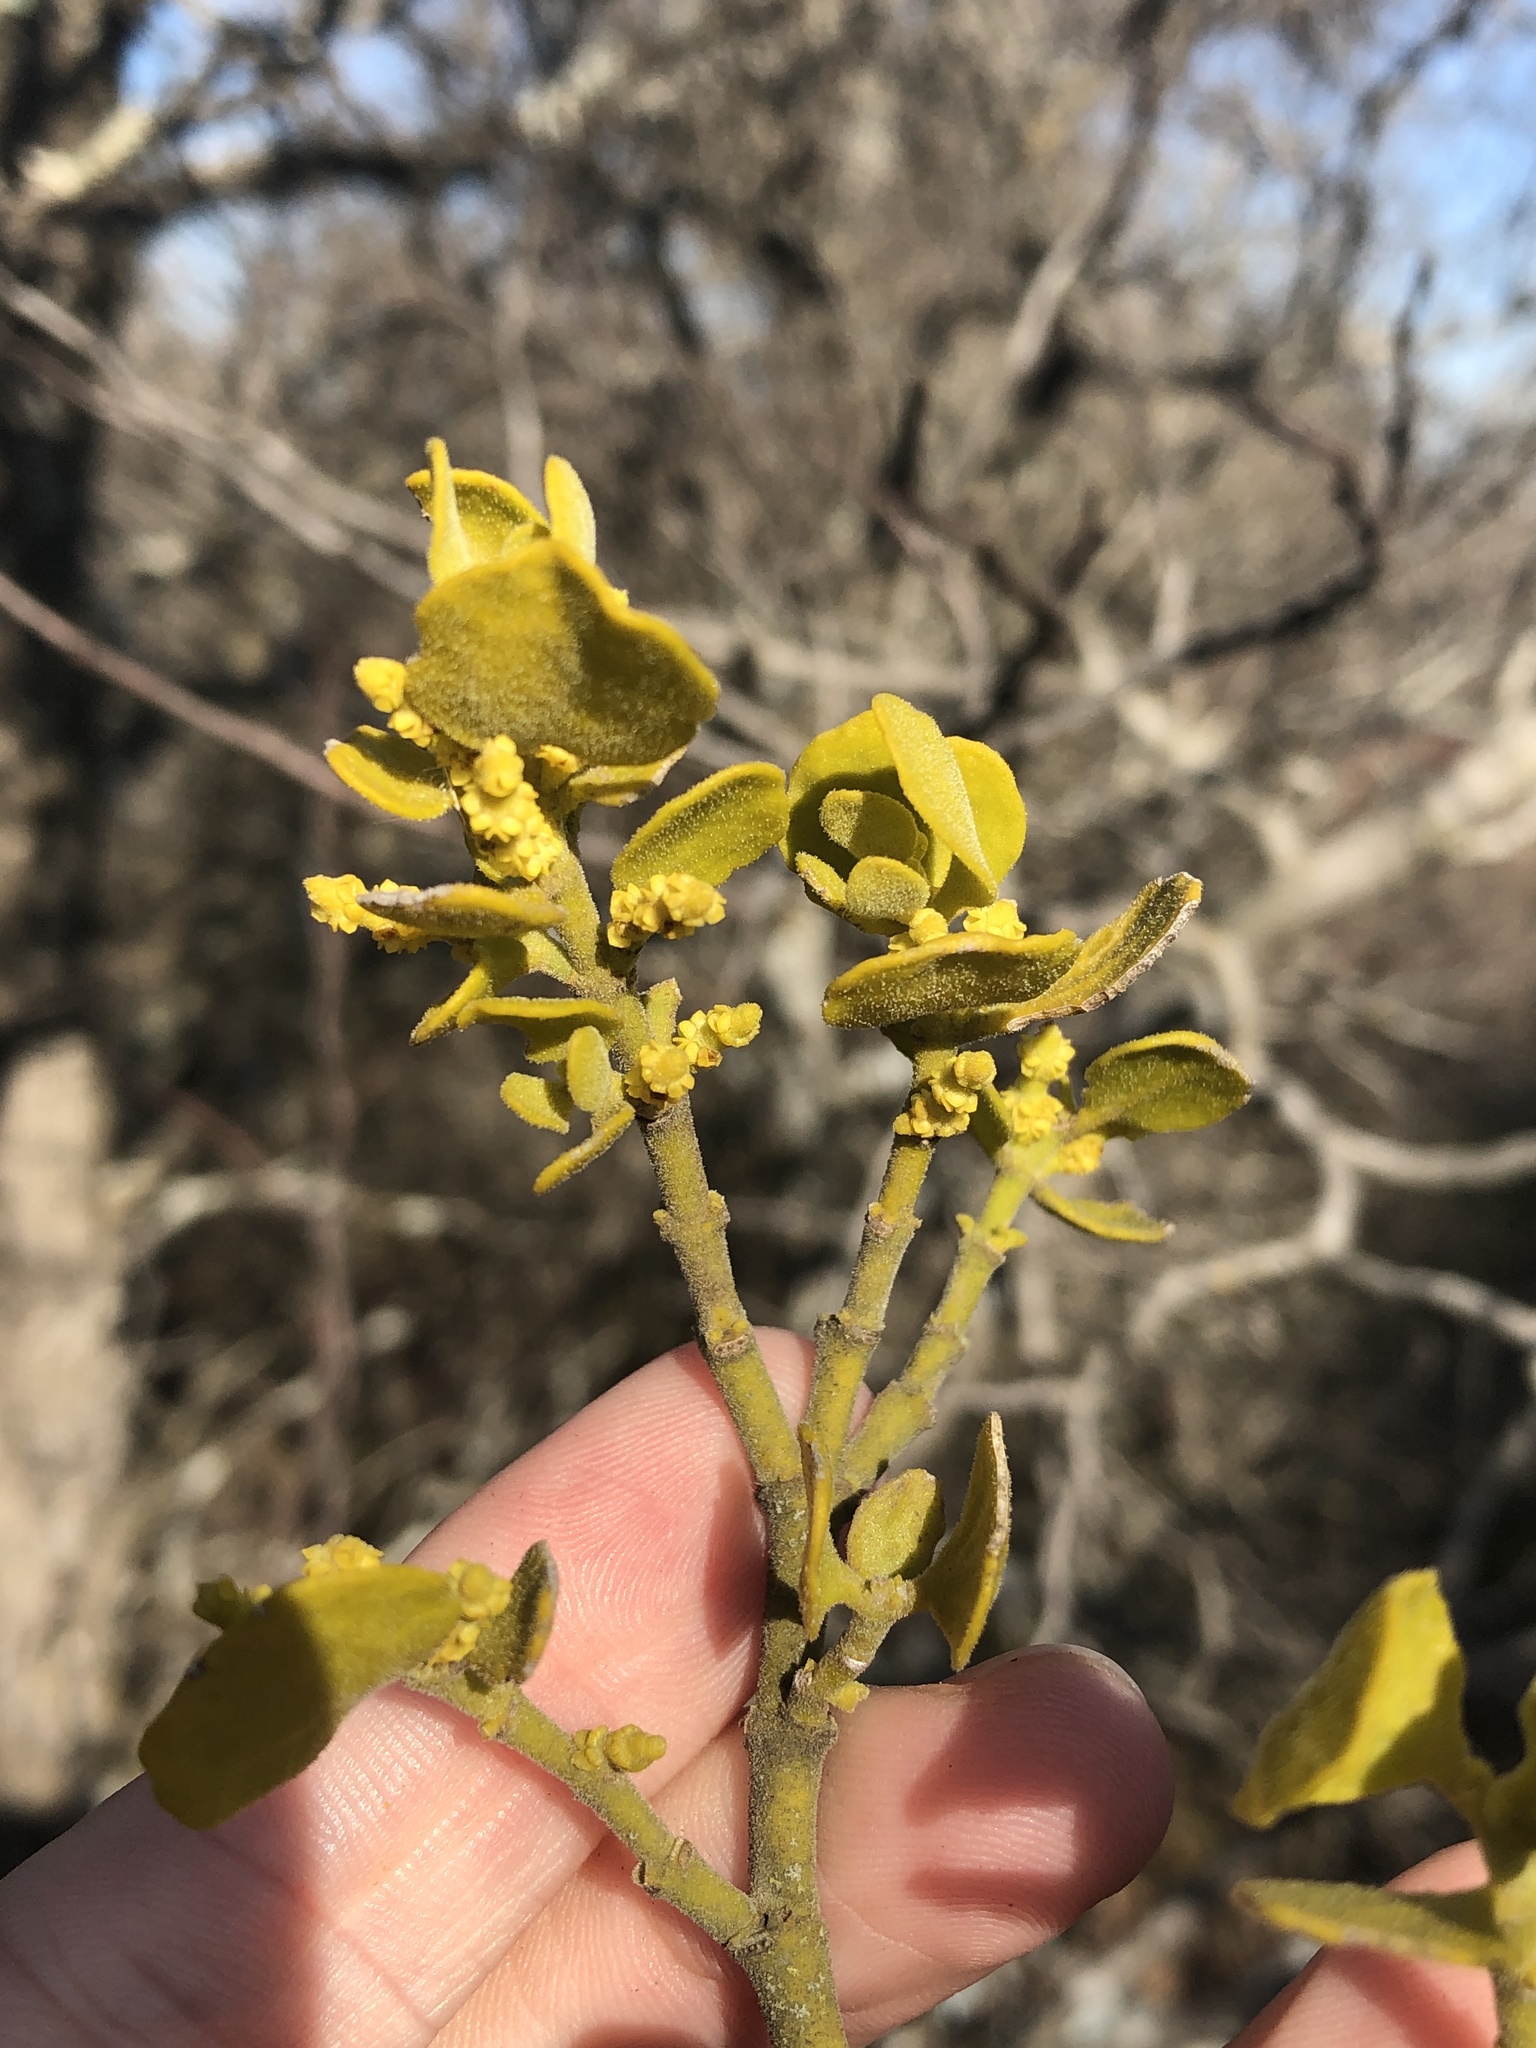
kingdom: Plantae
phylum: Tracheophyta
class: Magnoliopsida
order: Santalales
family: Viscaceae
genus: Phoradendron
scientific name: Phoradendron leucarpum
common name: Pacific mistletoe
